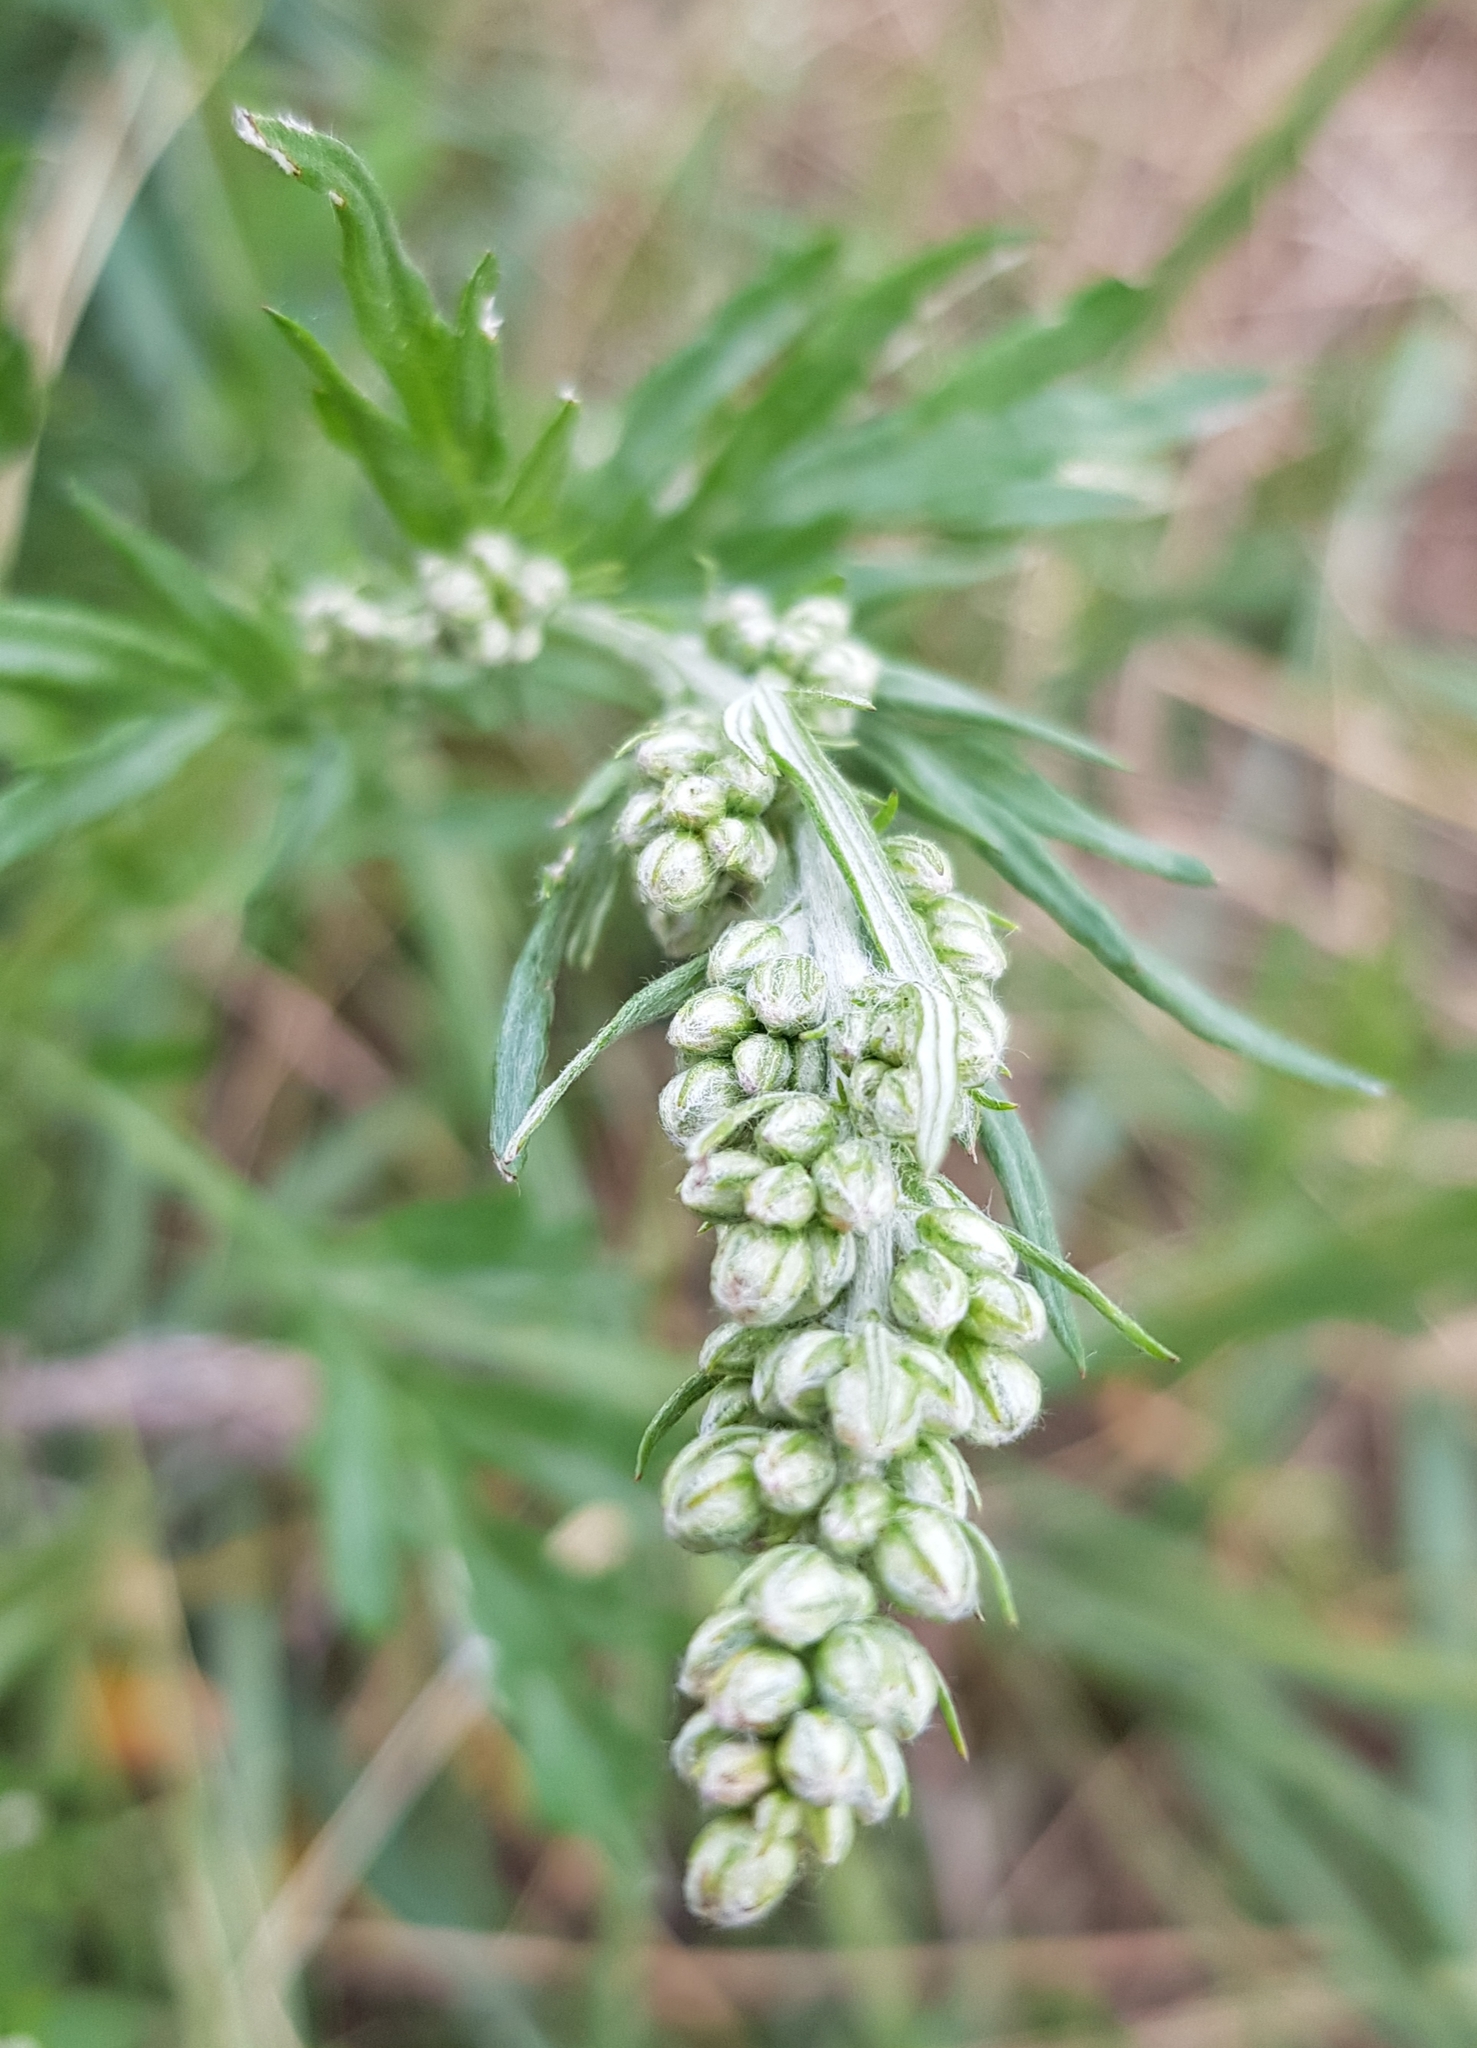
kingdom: Plantae
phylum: Tracheophyta
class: Magnoliopsida
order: Asterales
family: Asteraceae
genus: Artemisia
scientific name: Artemisia vulgaris
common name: Mugwort
